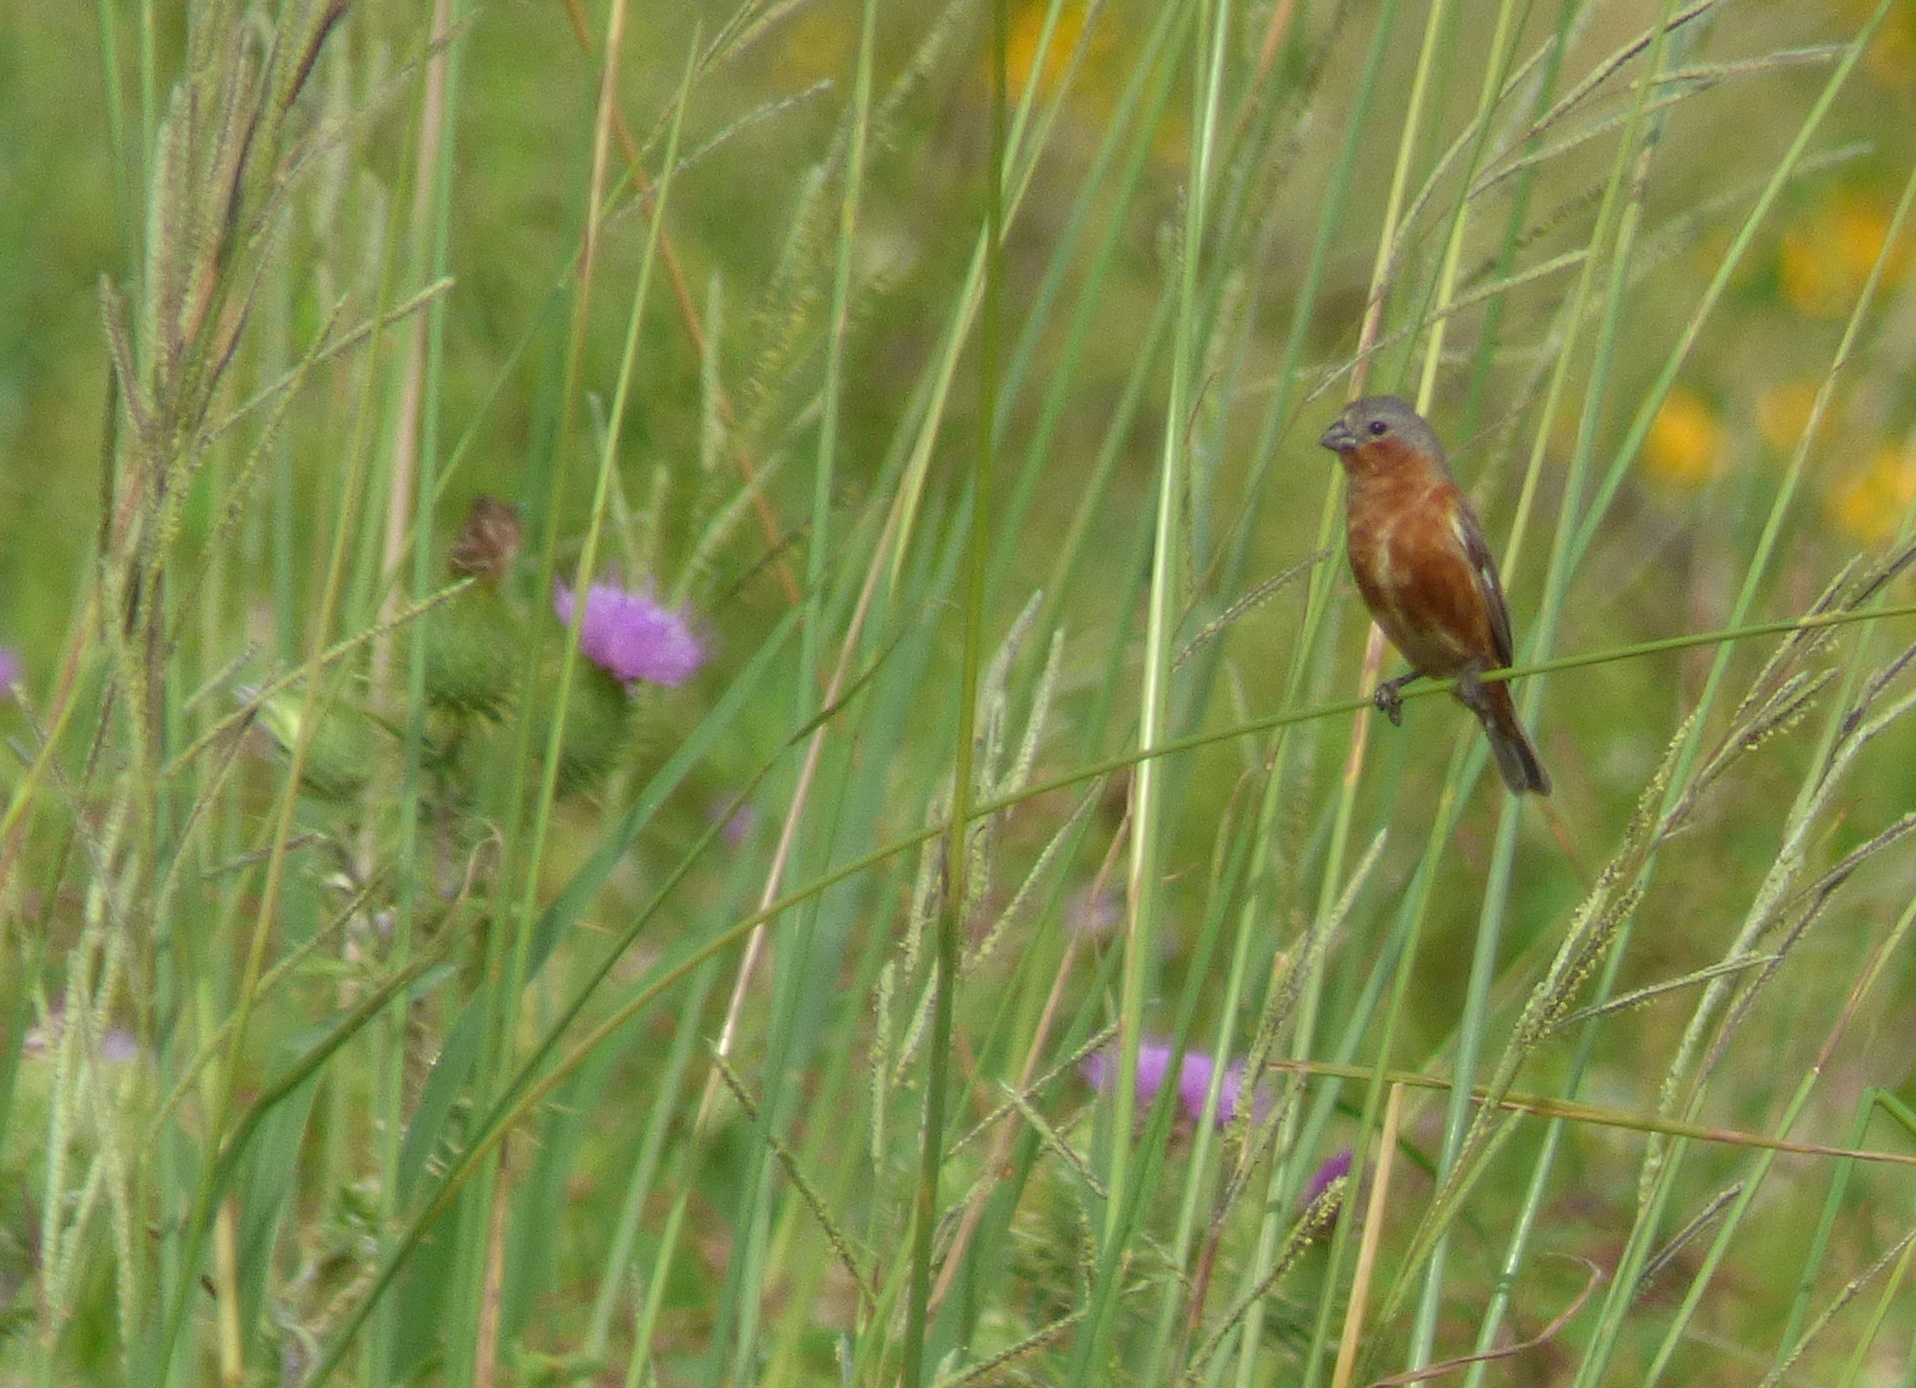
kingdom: Animalia
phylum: Chordata
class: Aves
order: Passeriformes
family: Thraupidae
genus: Sporophila
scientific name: Sporophila hypoxantha
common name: Tawny-bellied seedeater
